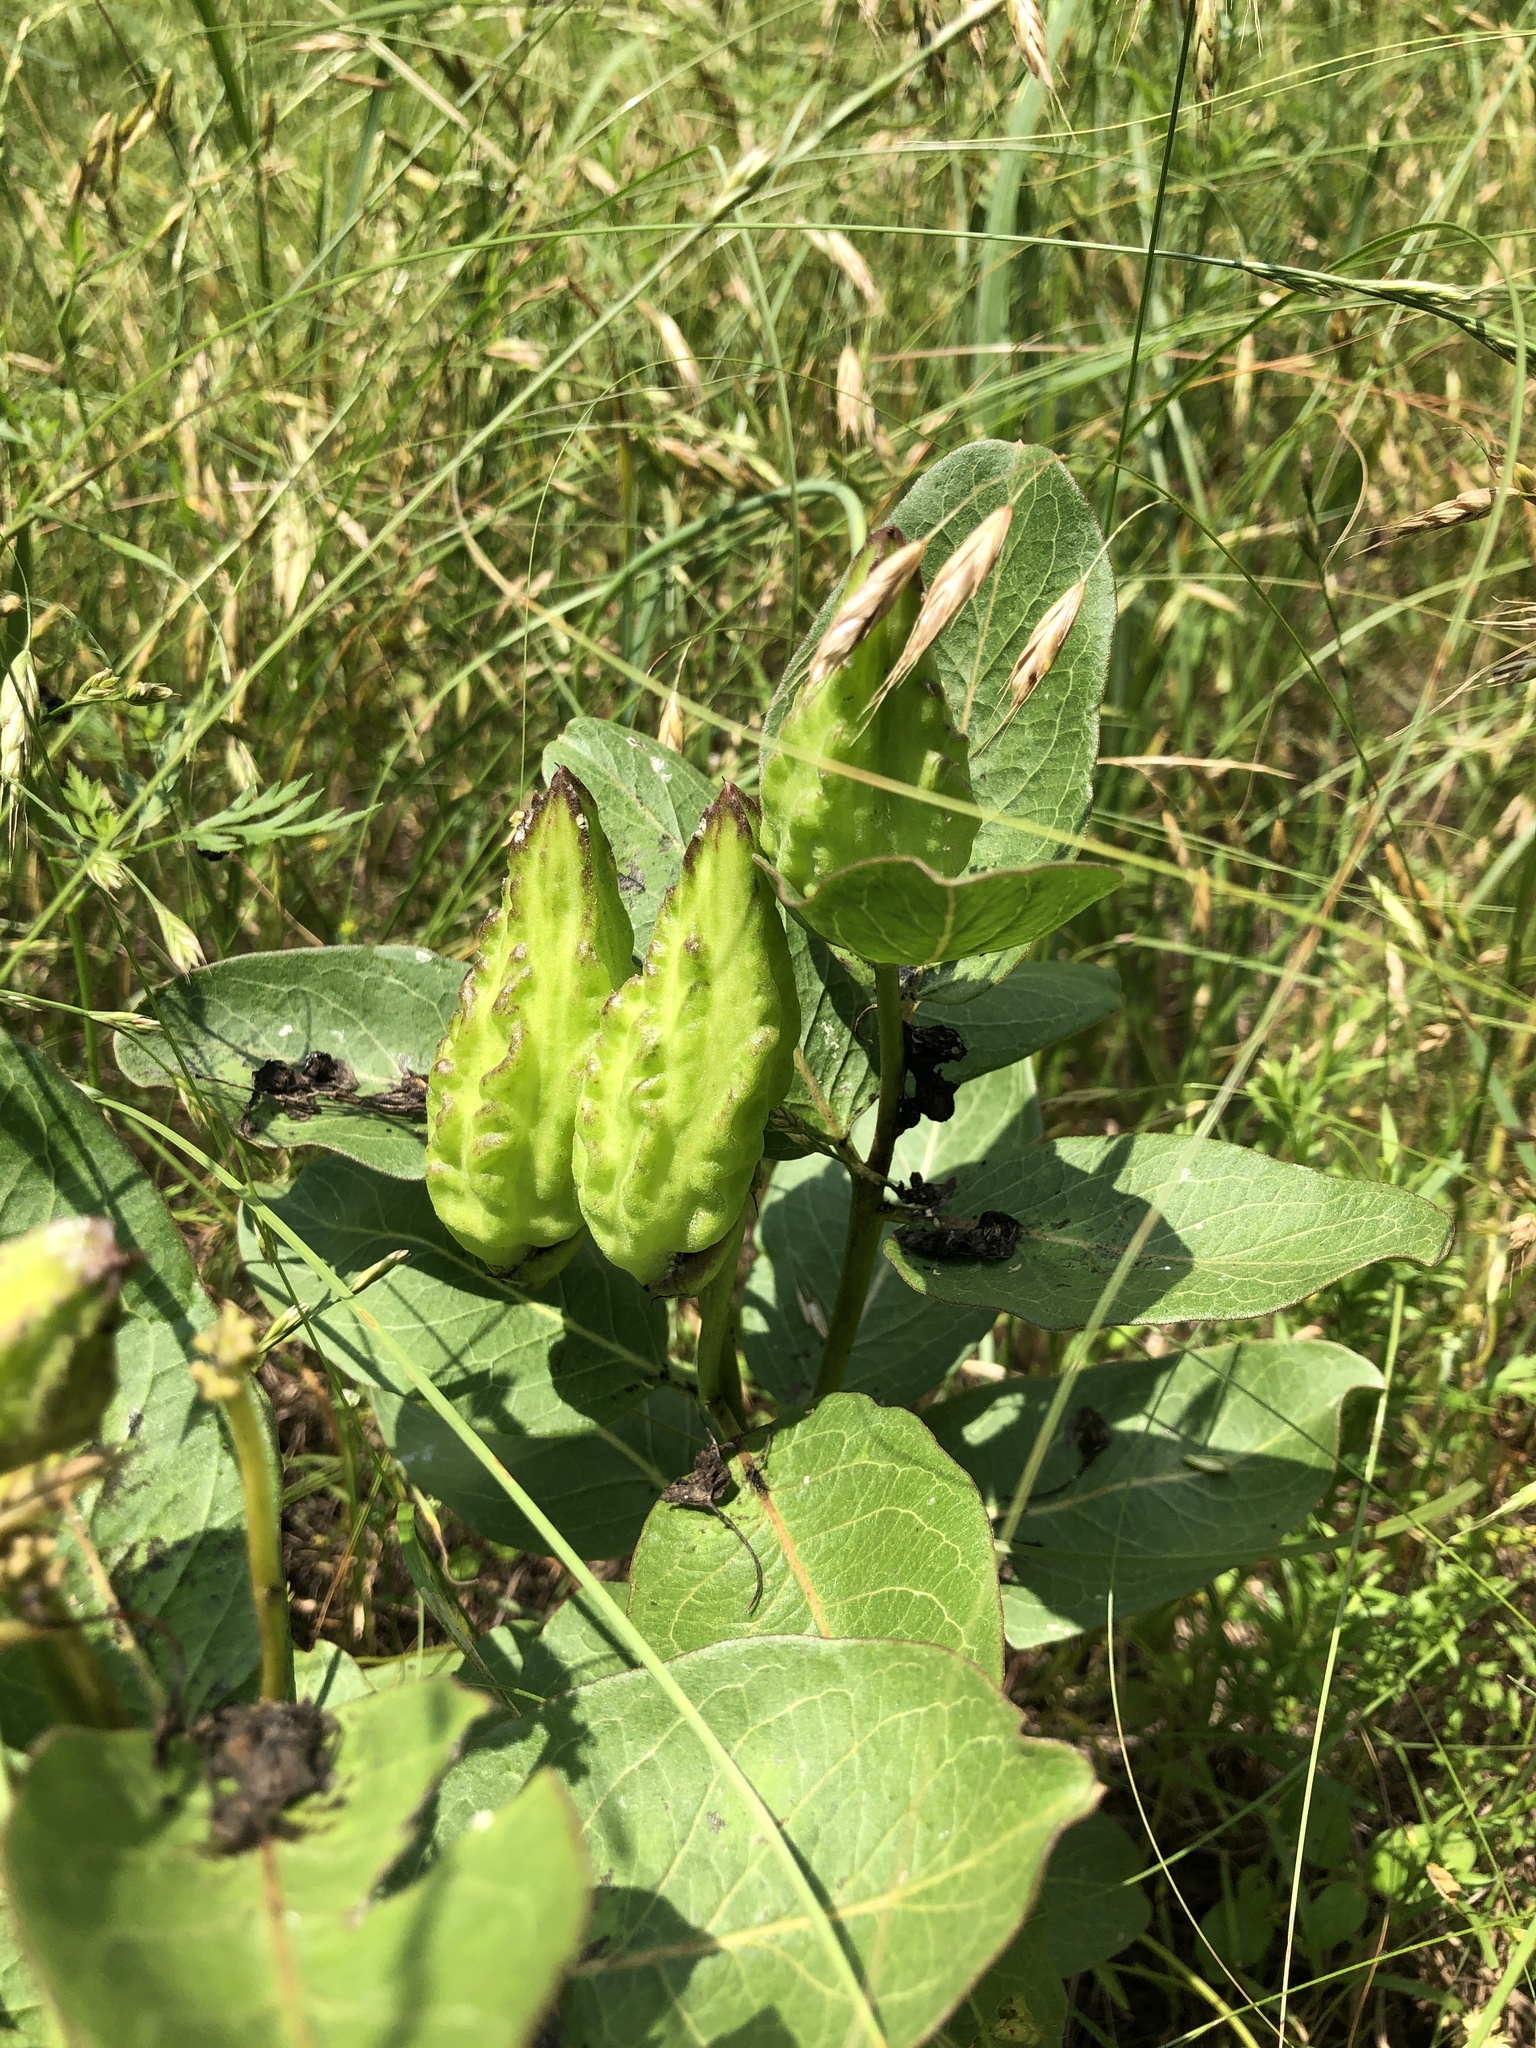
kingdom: Plantae
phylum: Tracheophyta
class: Magnoliopsida
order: Gentianales
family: Apocynaceae
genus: Asclepias
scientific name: Asclepias viridis
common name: Antelope-horns
